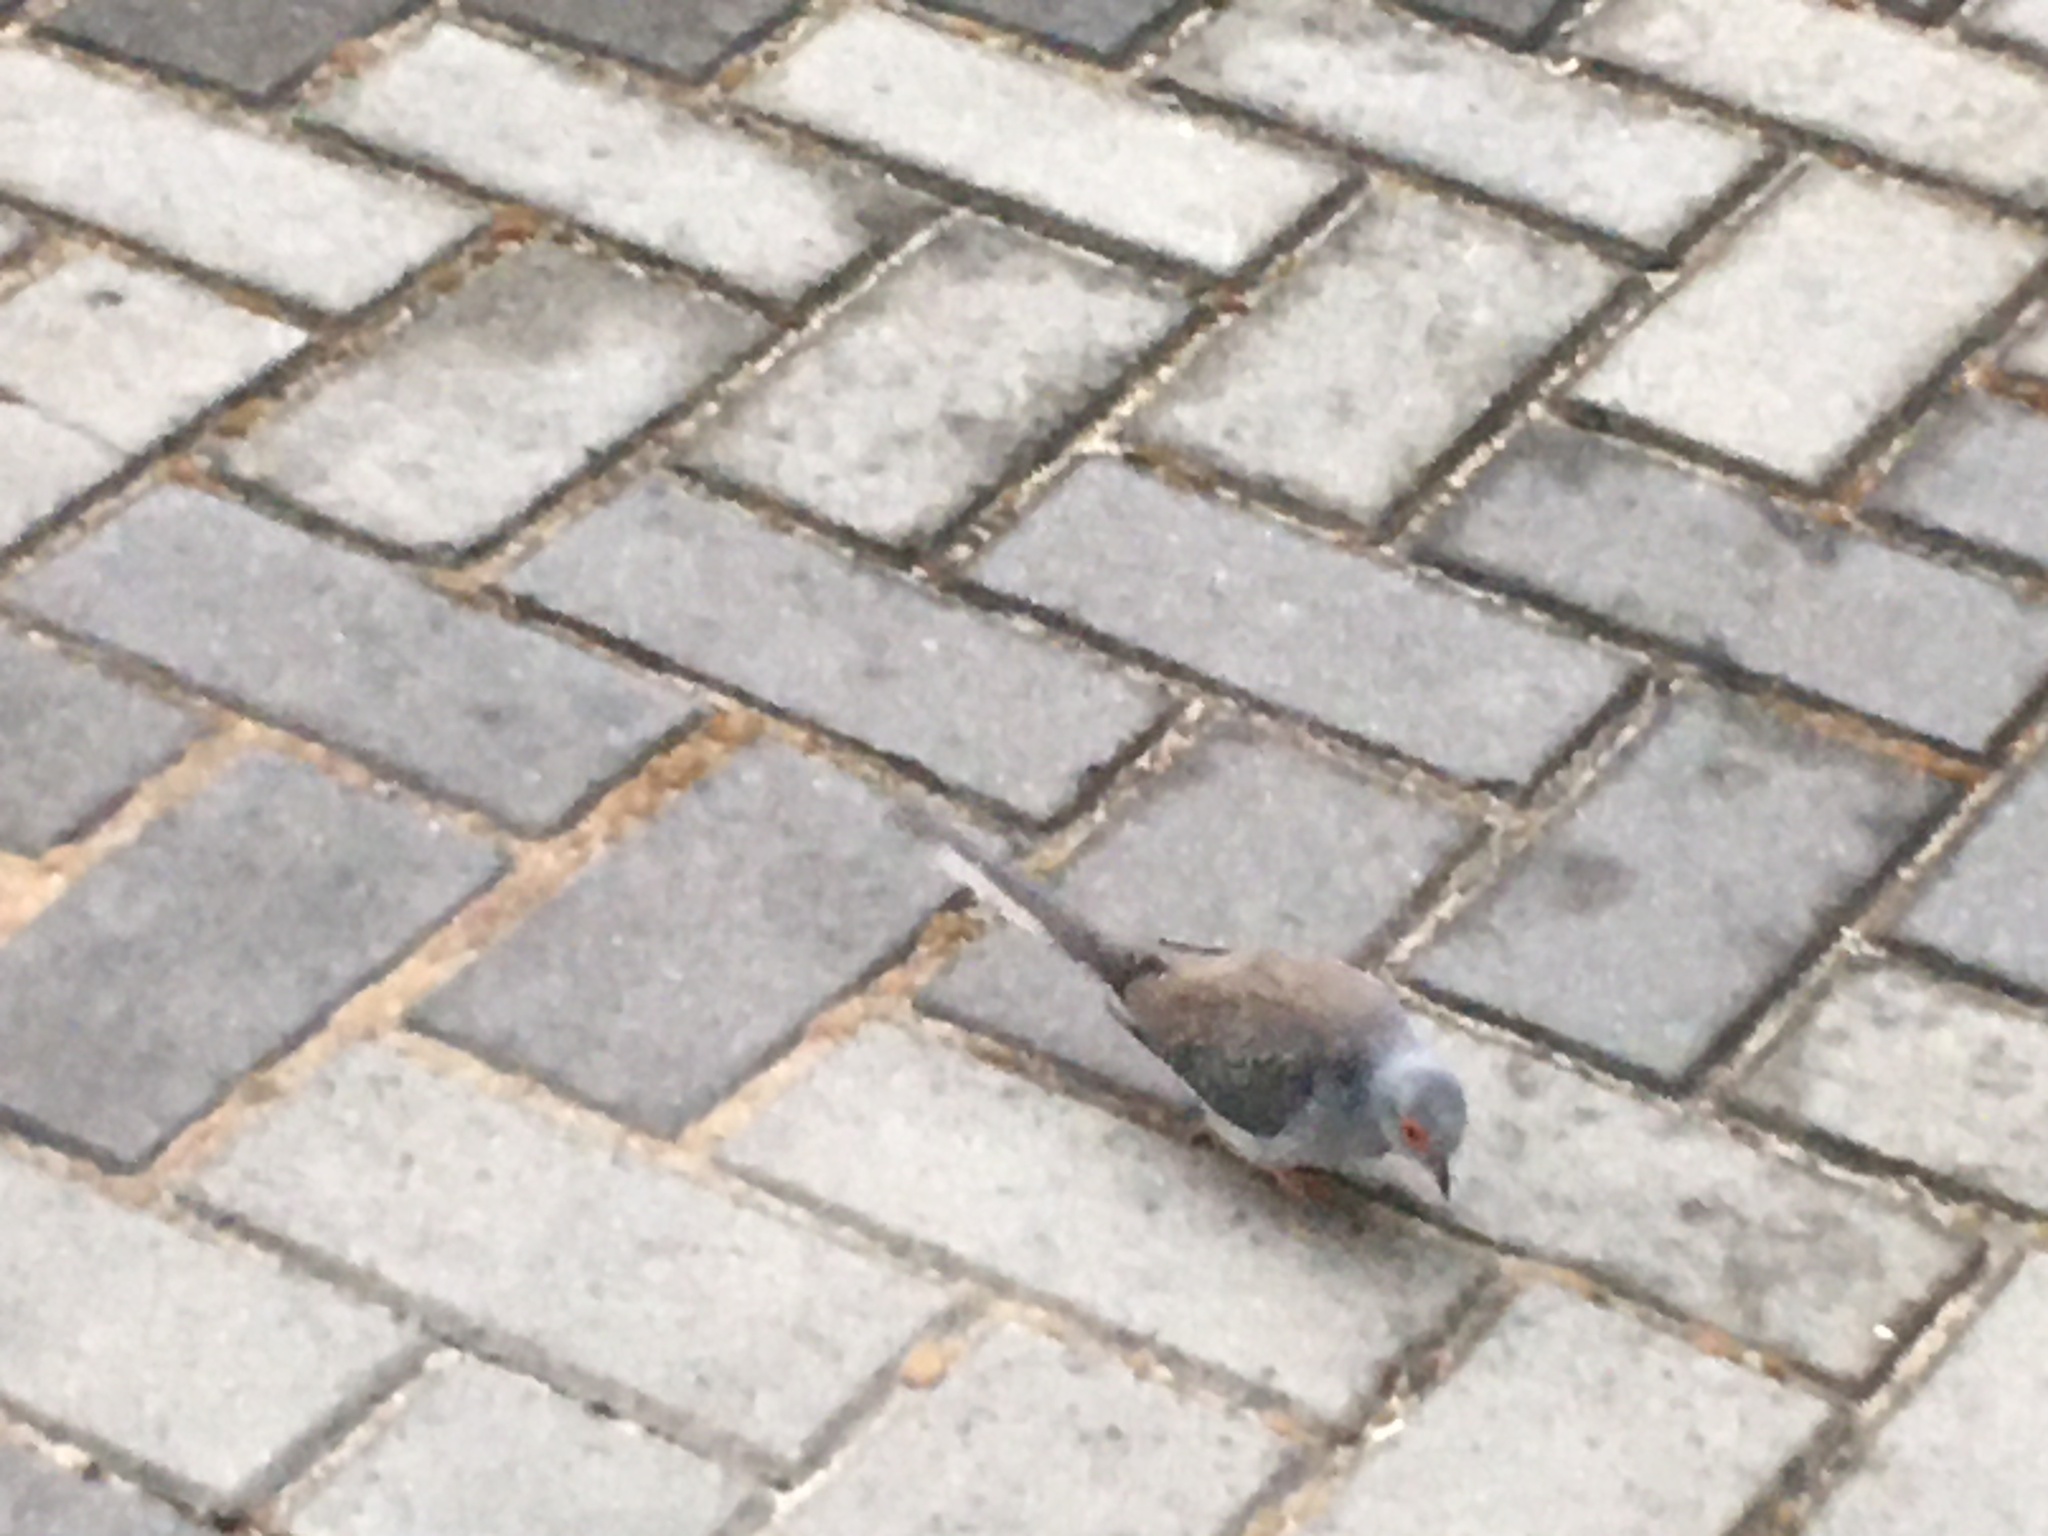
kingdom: Animalia
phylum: Chordata
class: Aves
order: Columbiformes
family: Columbidae
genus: Geopelia
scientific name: Geopelia cuneata
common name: Diamond dove
